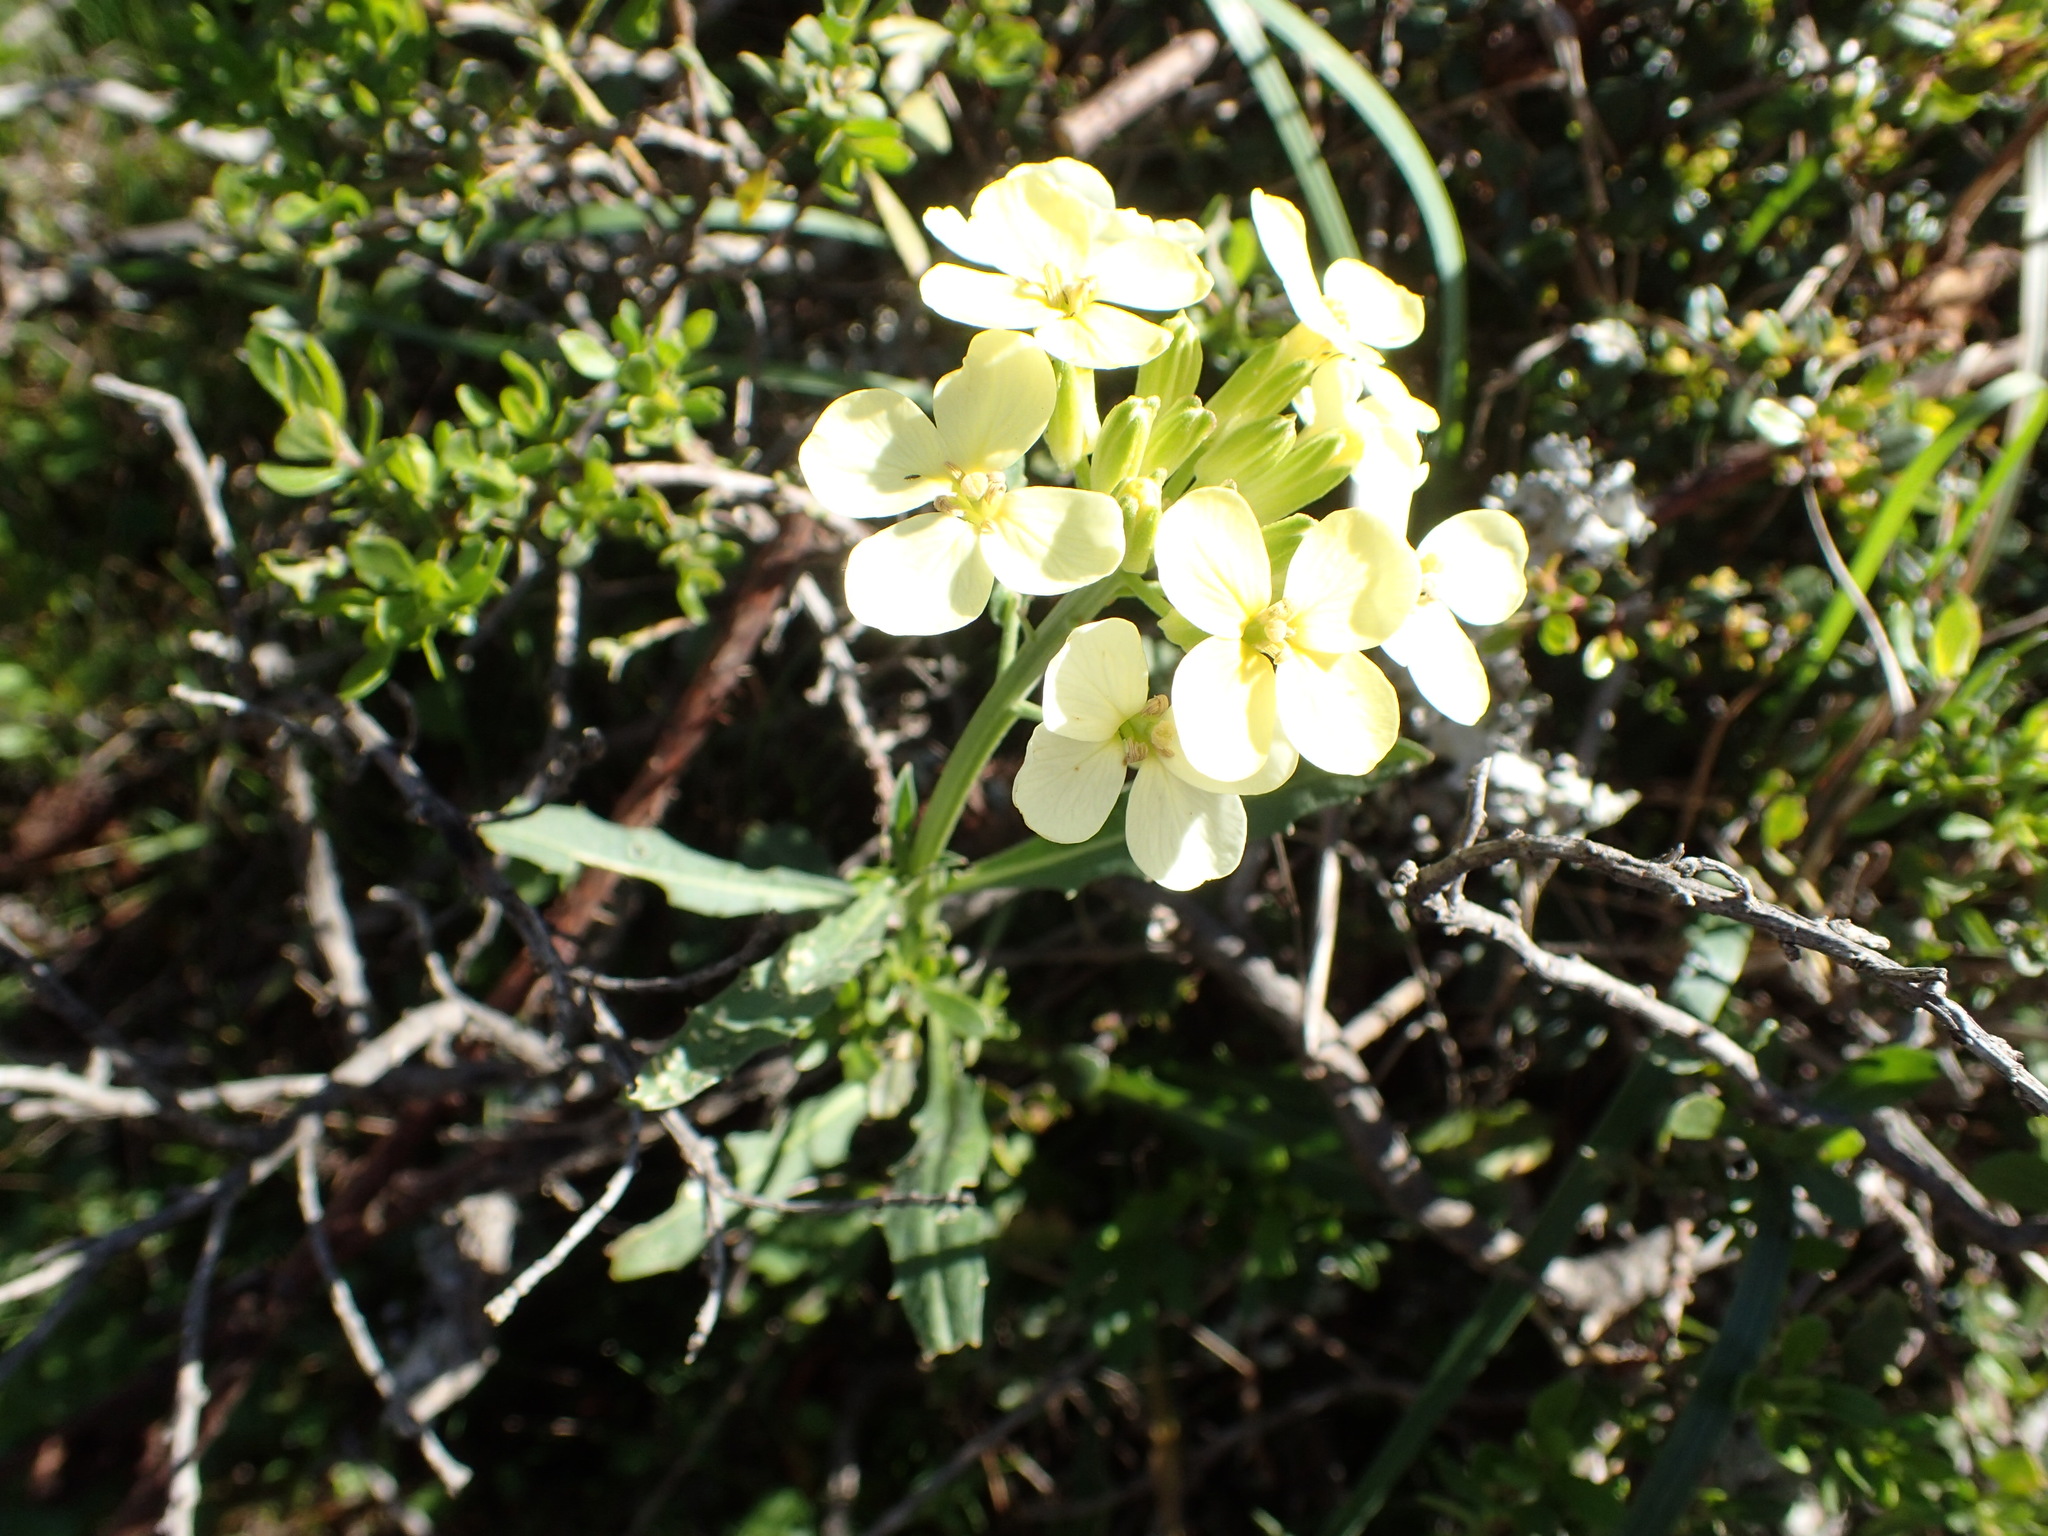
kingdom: Plantae
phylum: Tracheophyta
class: Magnoliopsida
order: Brassicales
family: Brassicaceae
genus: Erysimum
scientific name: Erysimum franciscanum
